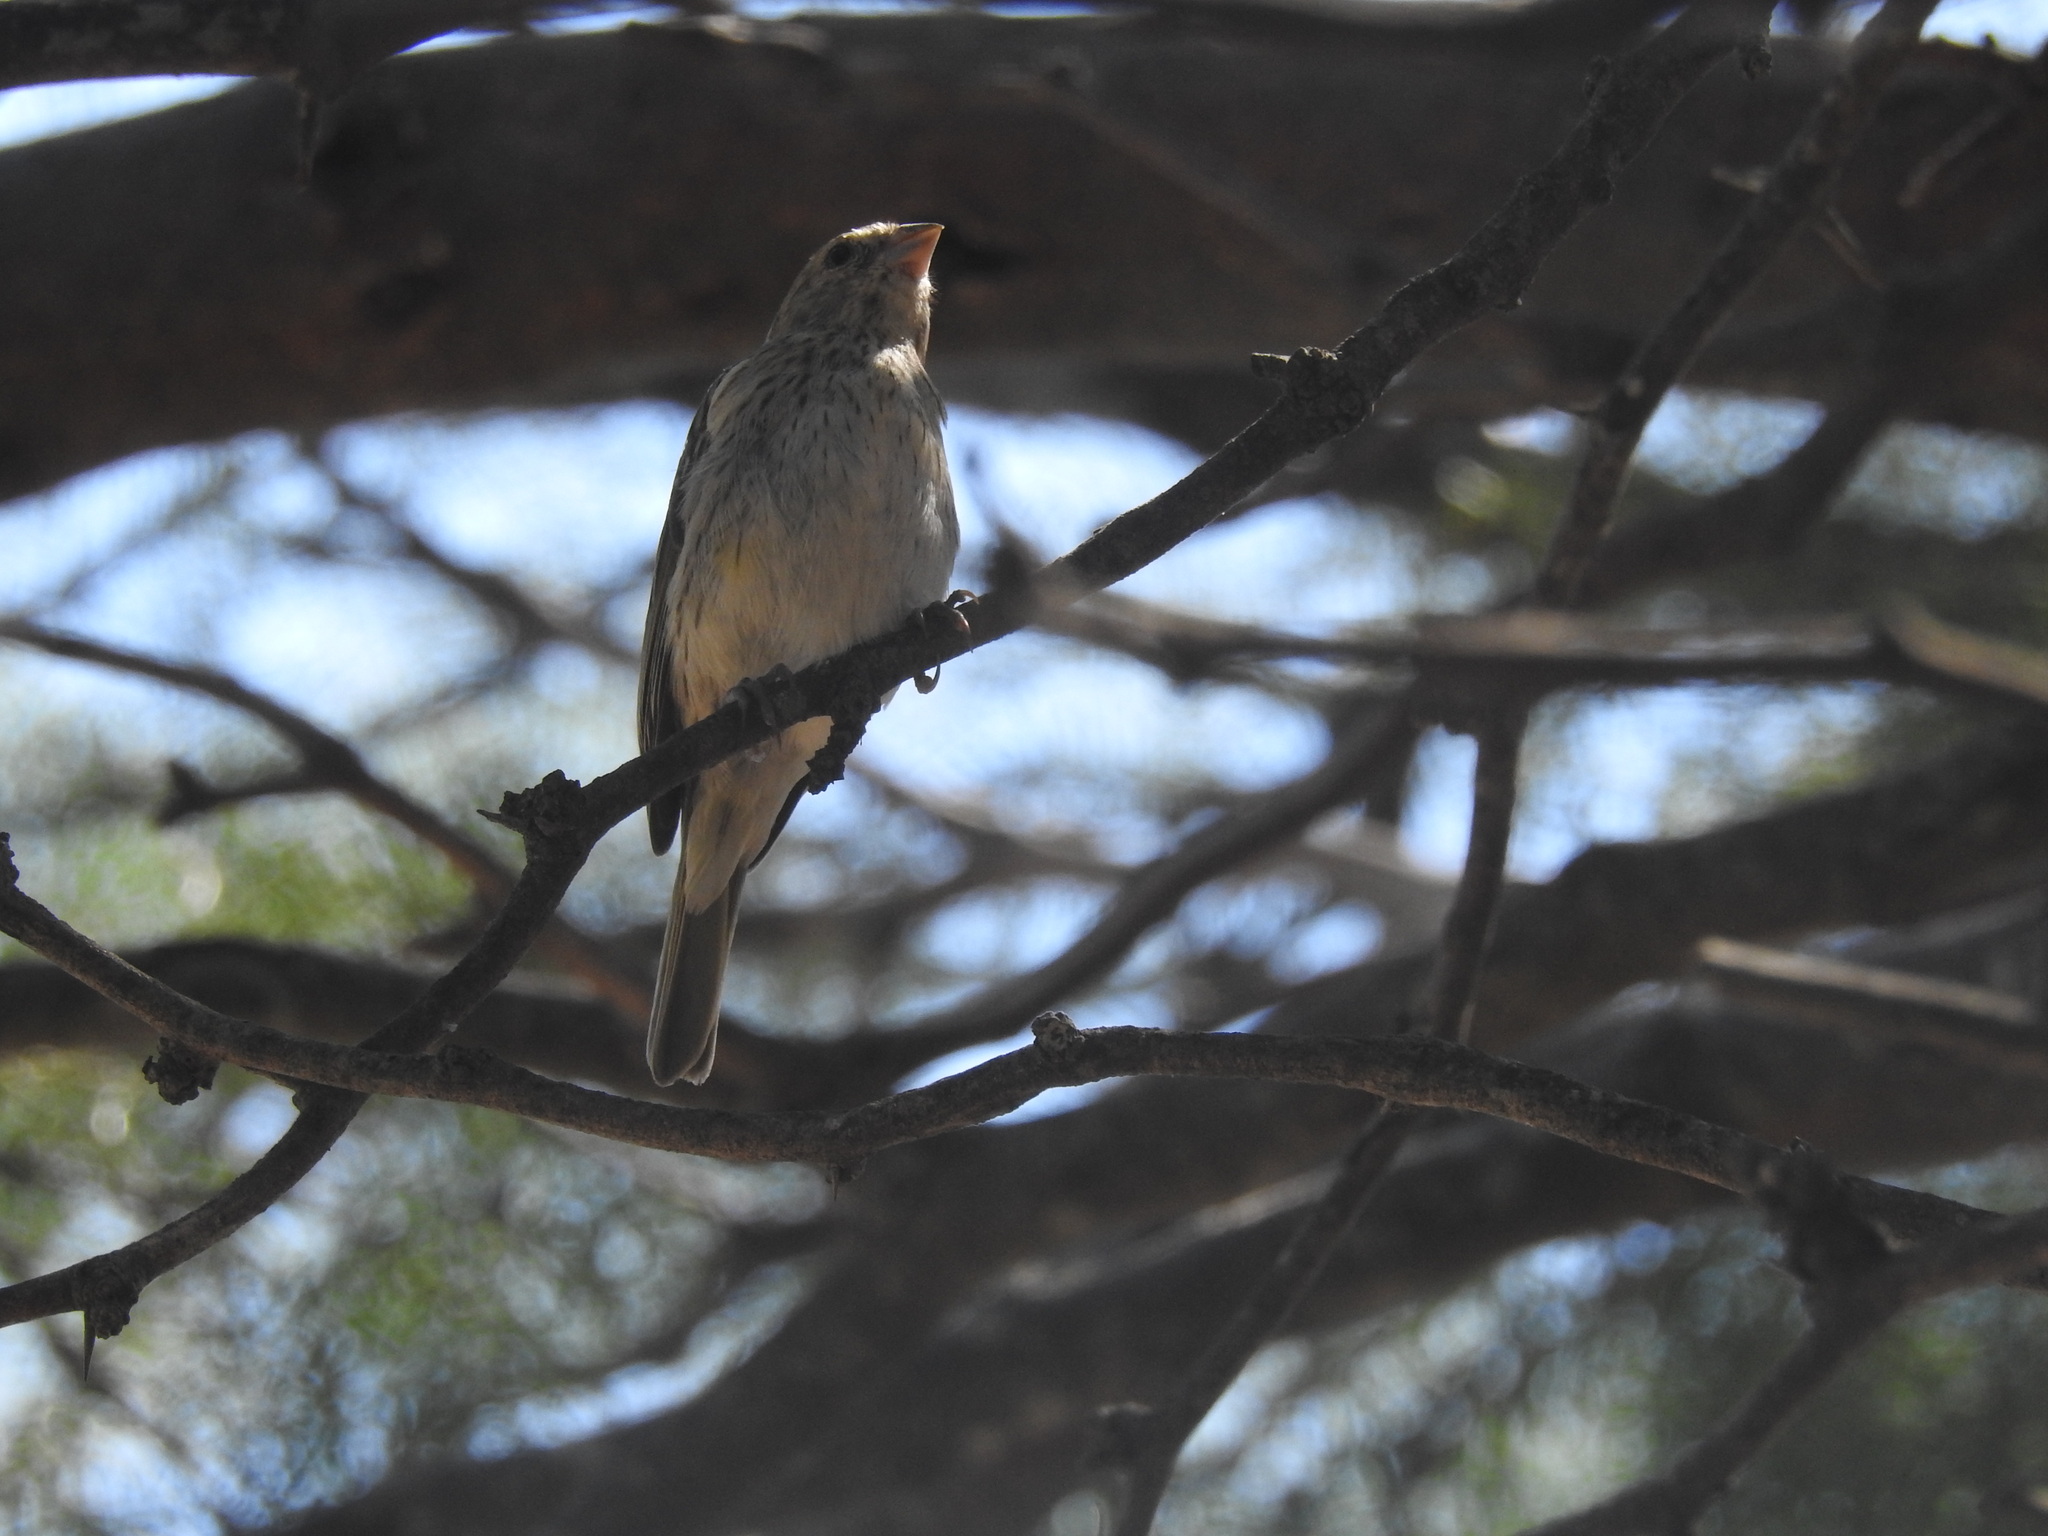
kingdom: Animalia
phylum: Chordata
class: Aves
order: Passeriformes
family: Thraupidae
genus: Sicalis
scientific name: Sicalis flaveola
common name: Saffron finch
